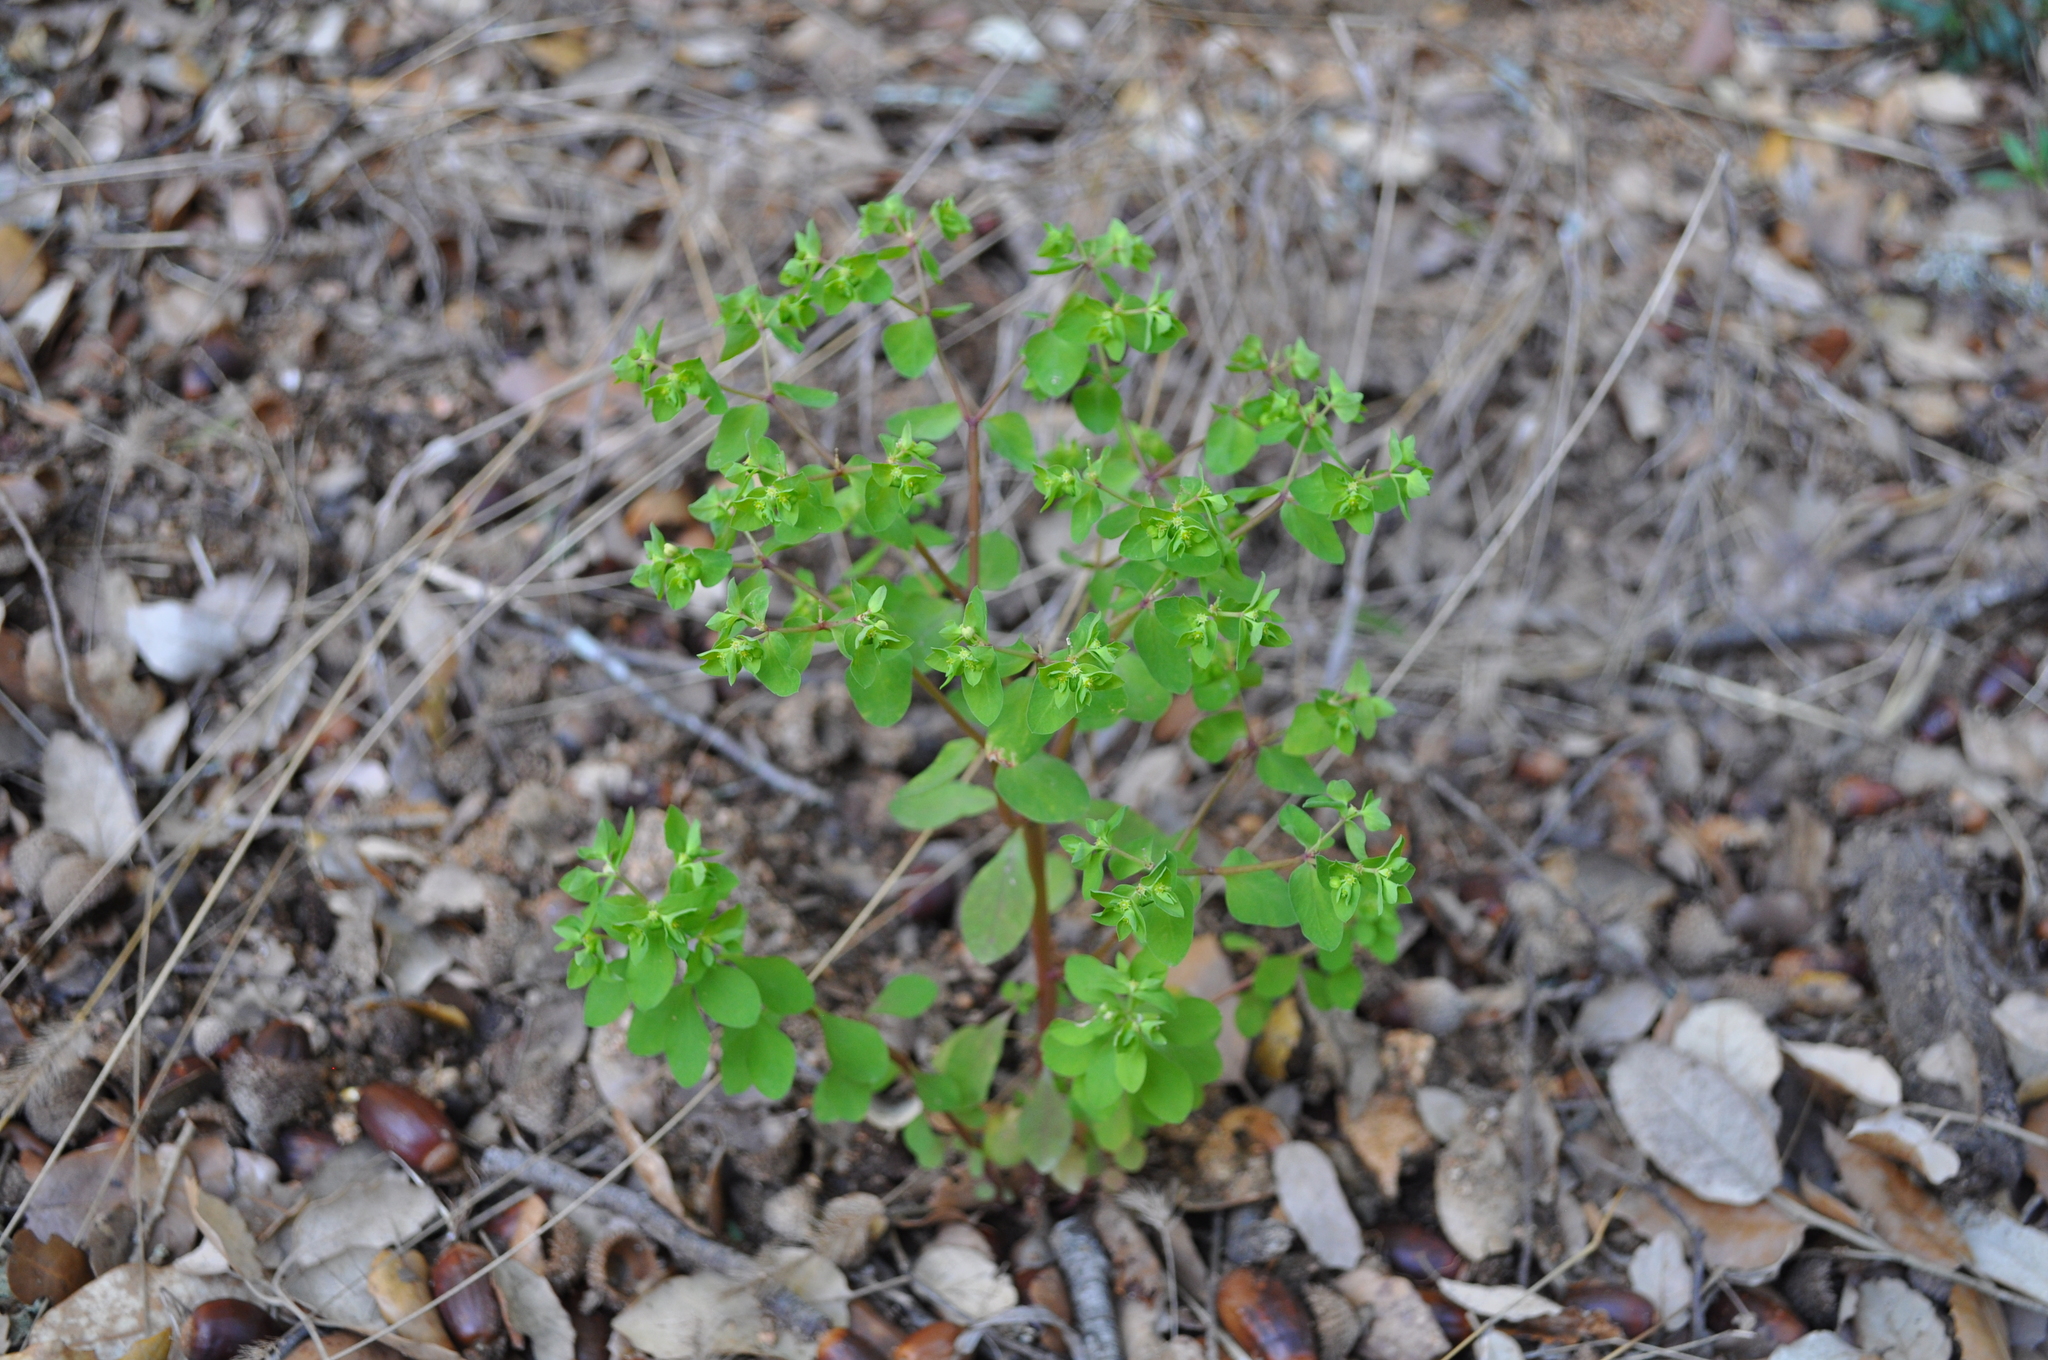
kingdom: Plantae
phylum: Tracheophyta
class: Magnoliopsida
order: Malpighiales
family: Euphorbiaceae
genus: Euphorbia
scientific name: Euphorbia peplus
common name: Petty spurge
